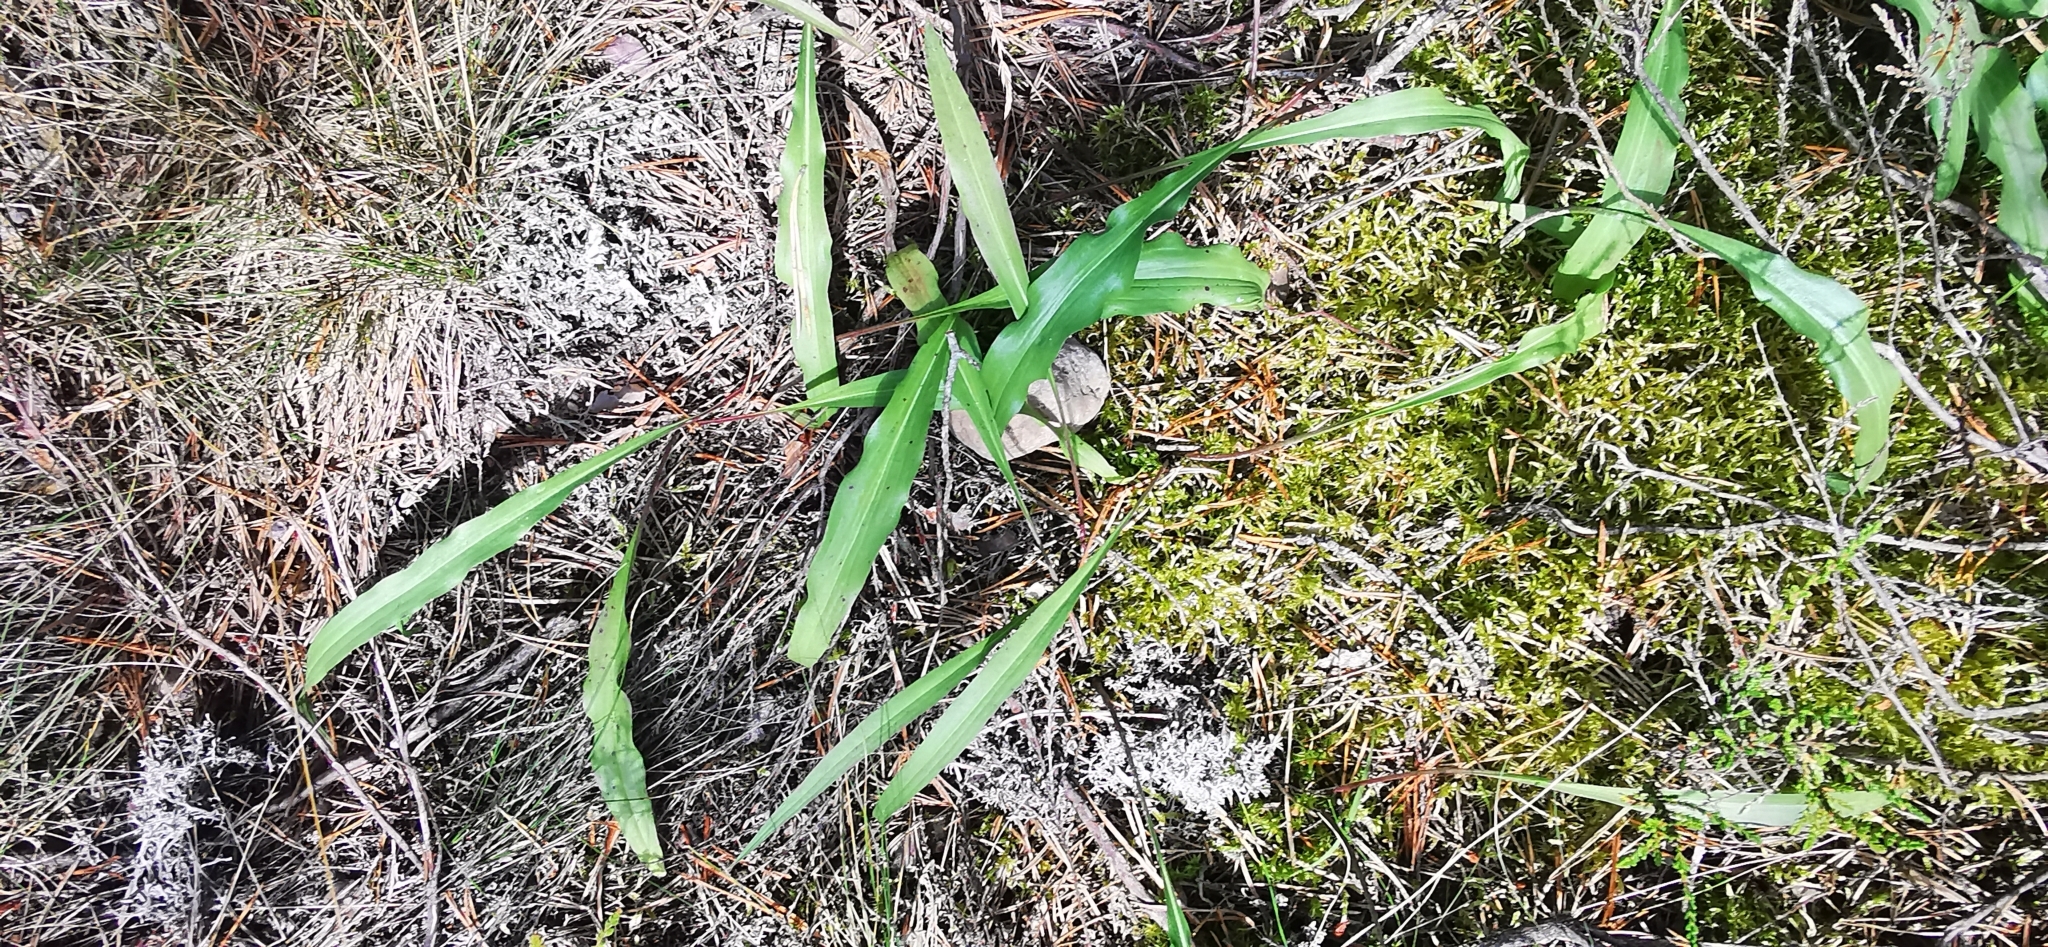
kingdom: Plantae
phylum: Tracheophyta
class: Magnoliopsida
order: Asterales
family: Asteraceae
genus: Scorzonera
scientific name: Scorzonera humilis
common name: Viper's-grass
